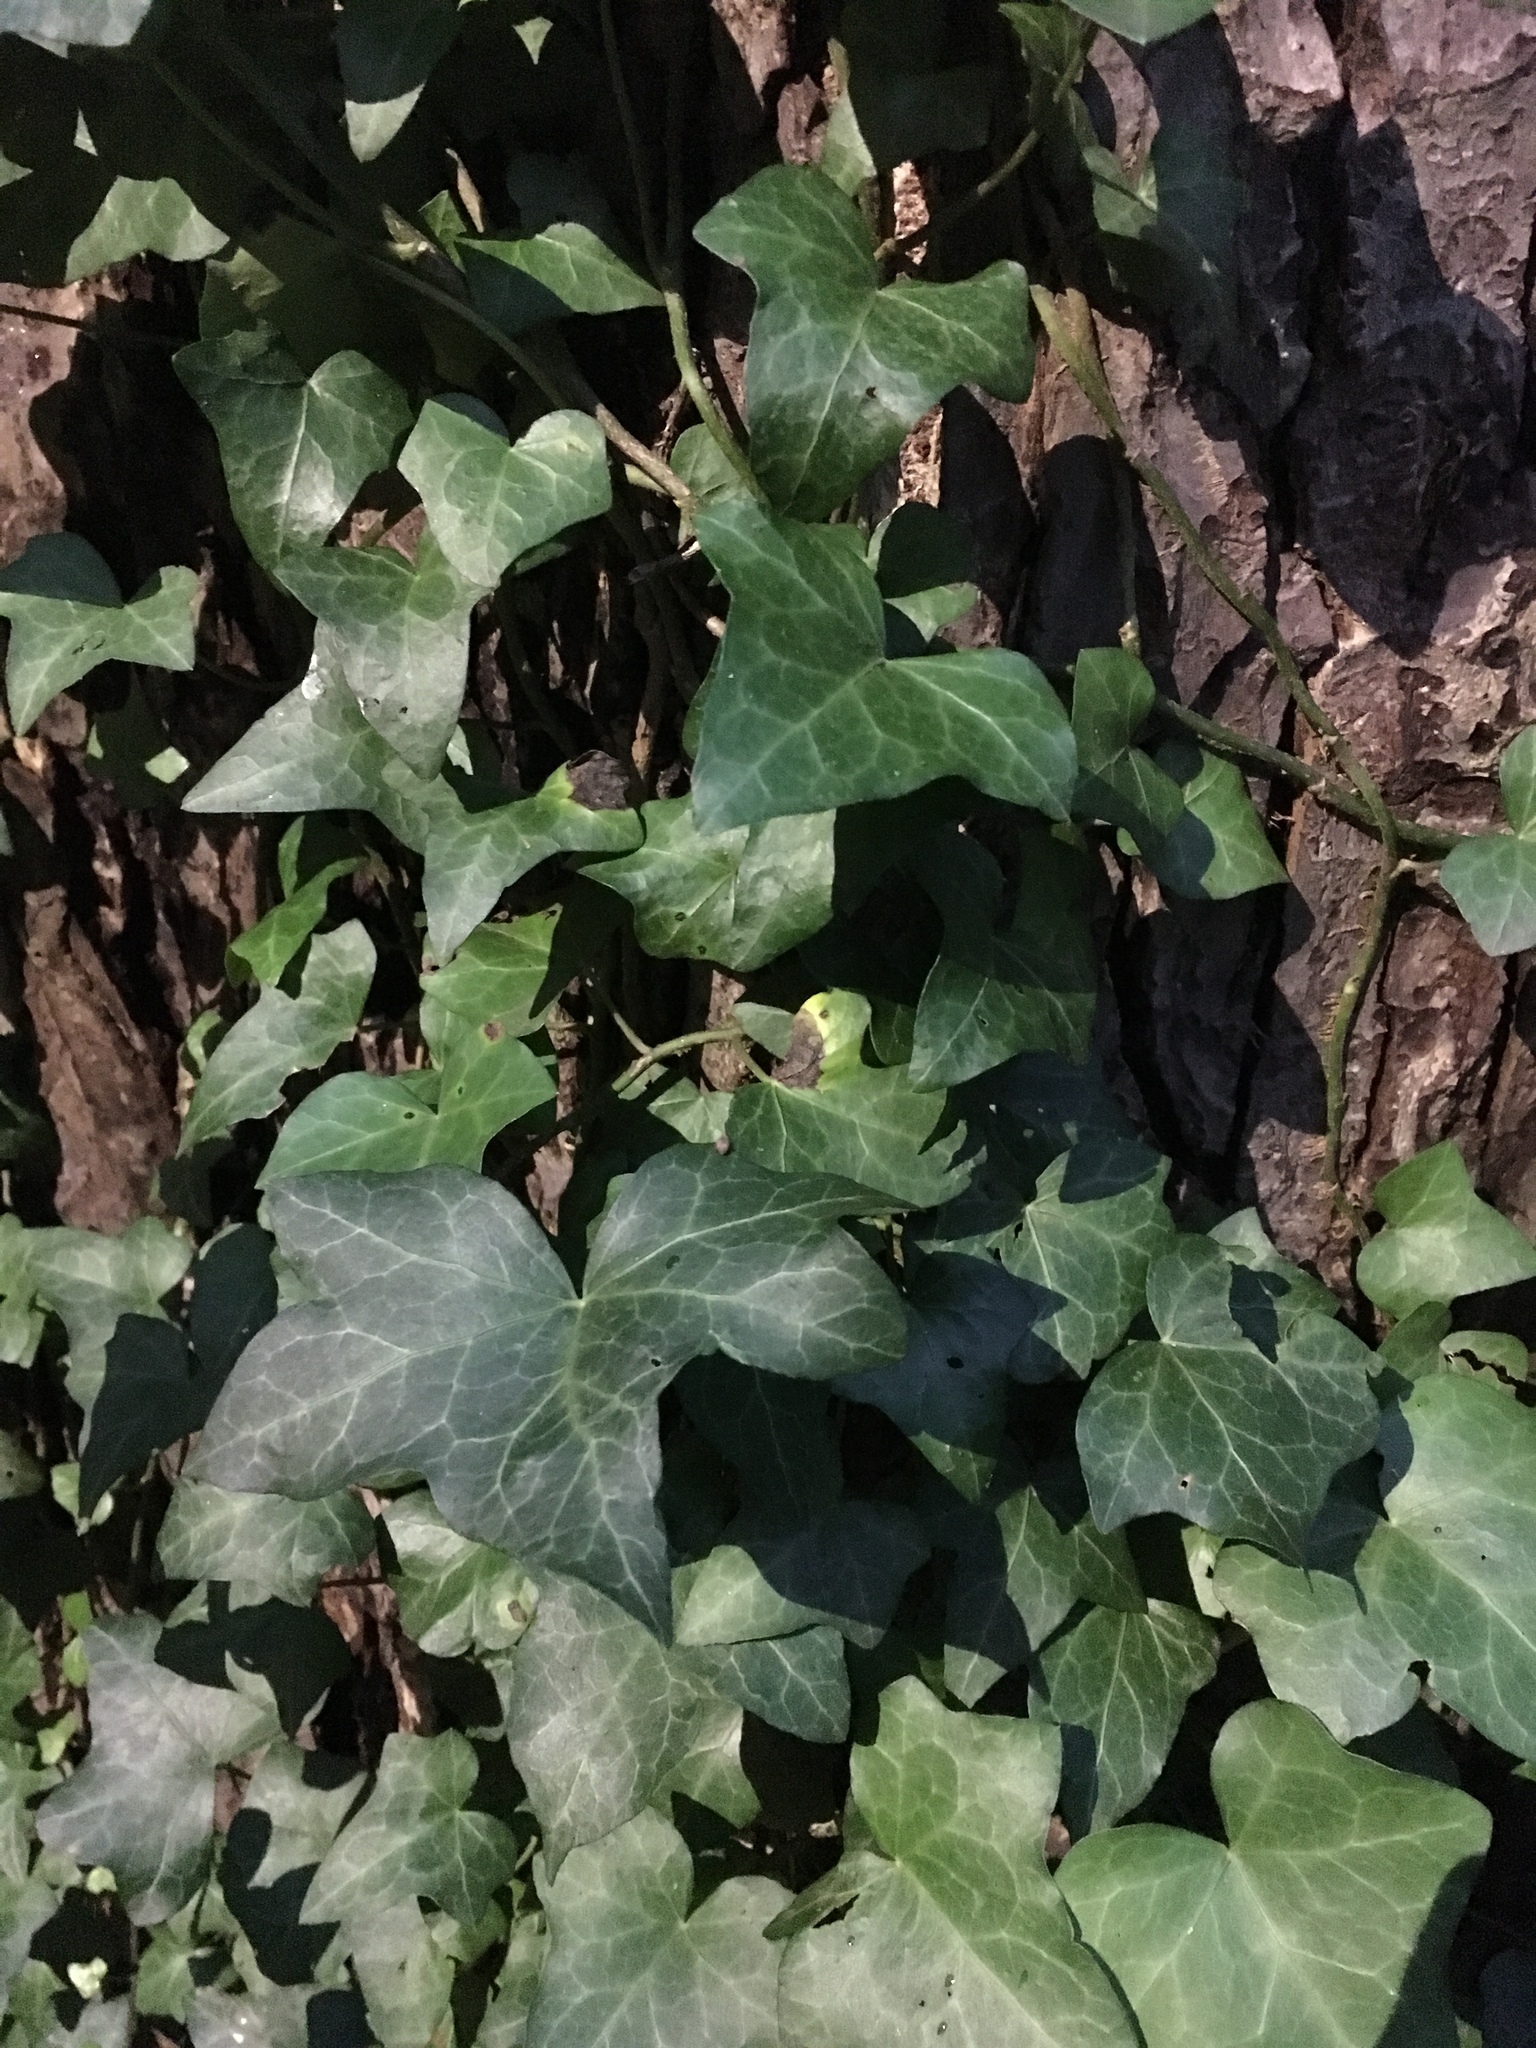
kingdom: Plantae
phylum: Tracheophyta
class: Magnoliopsida
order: Apiales
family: Araliaceae
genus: Hedera
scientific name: Hedera helix
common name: Ivy
